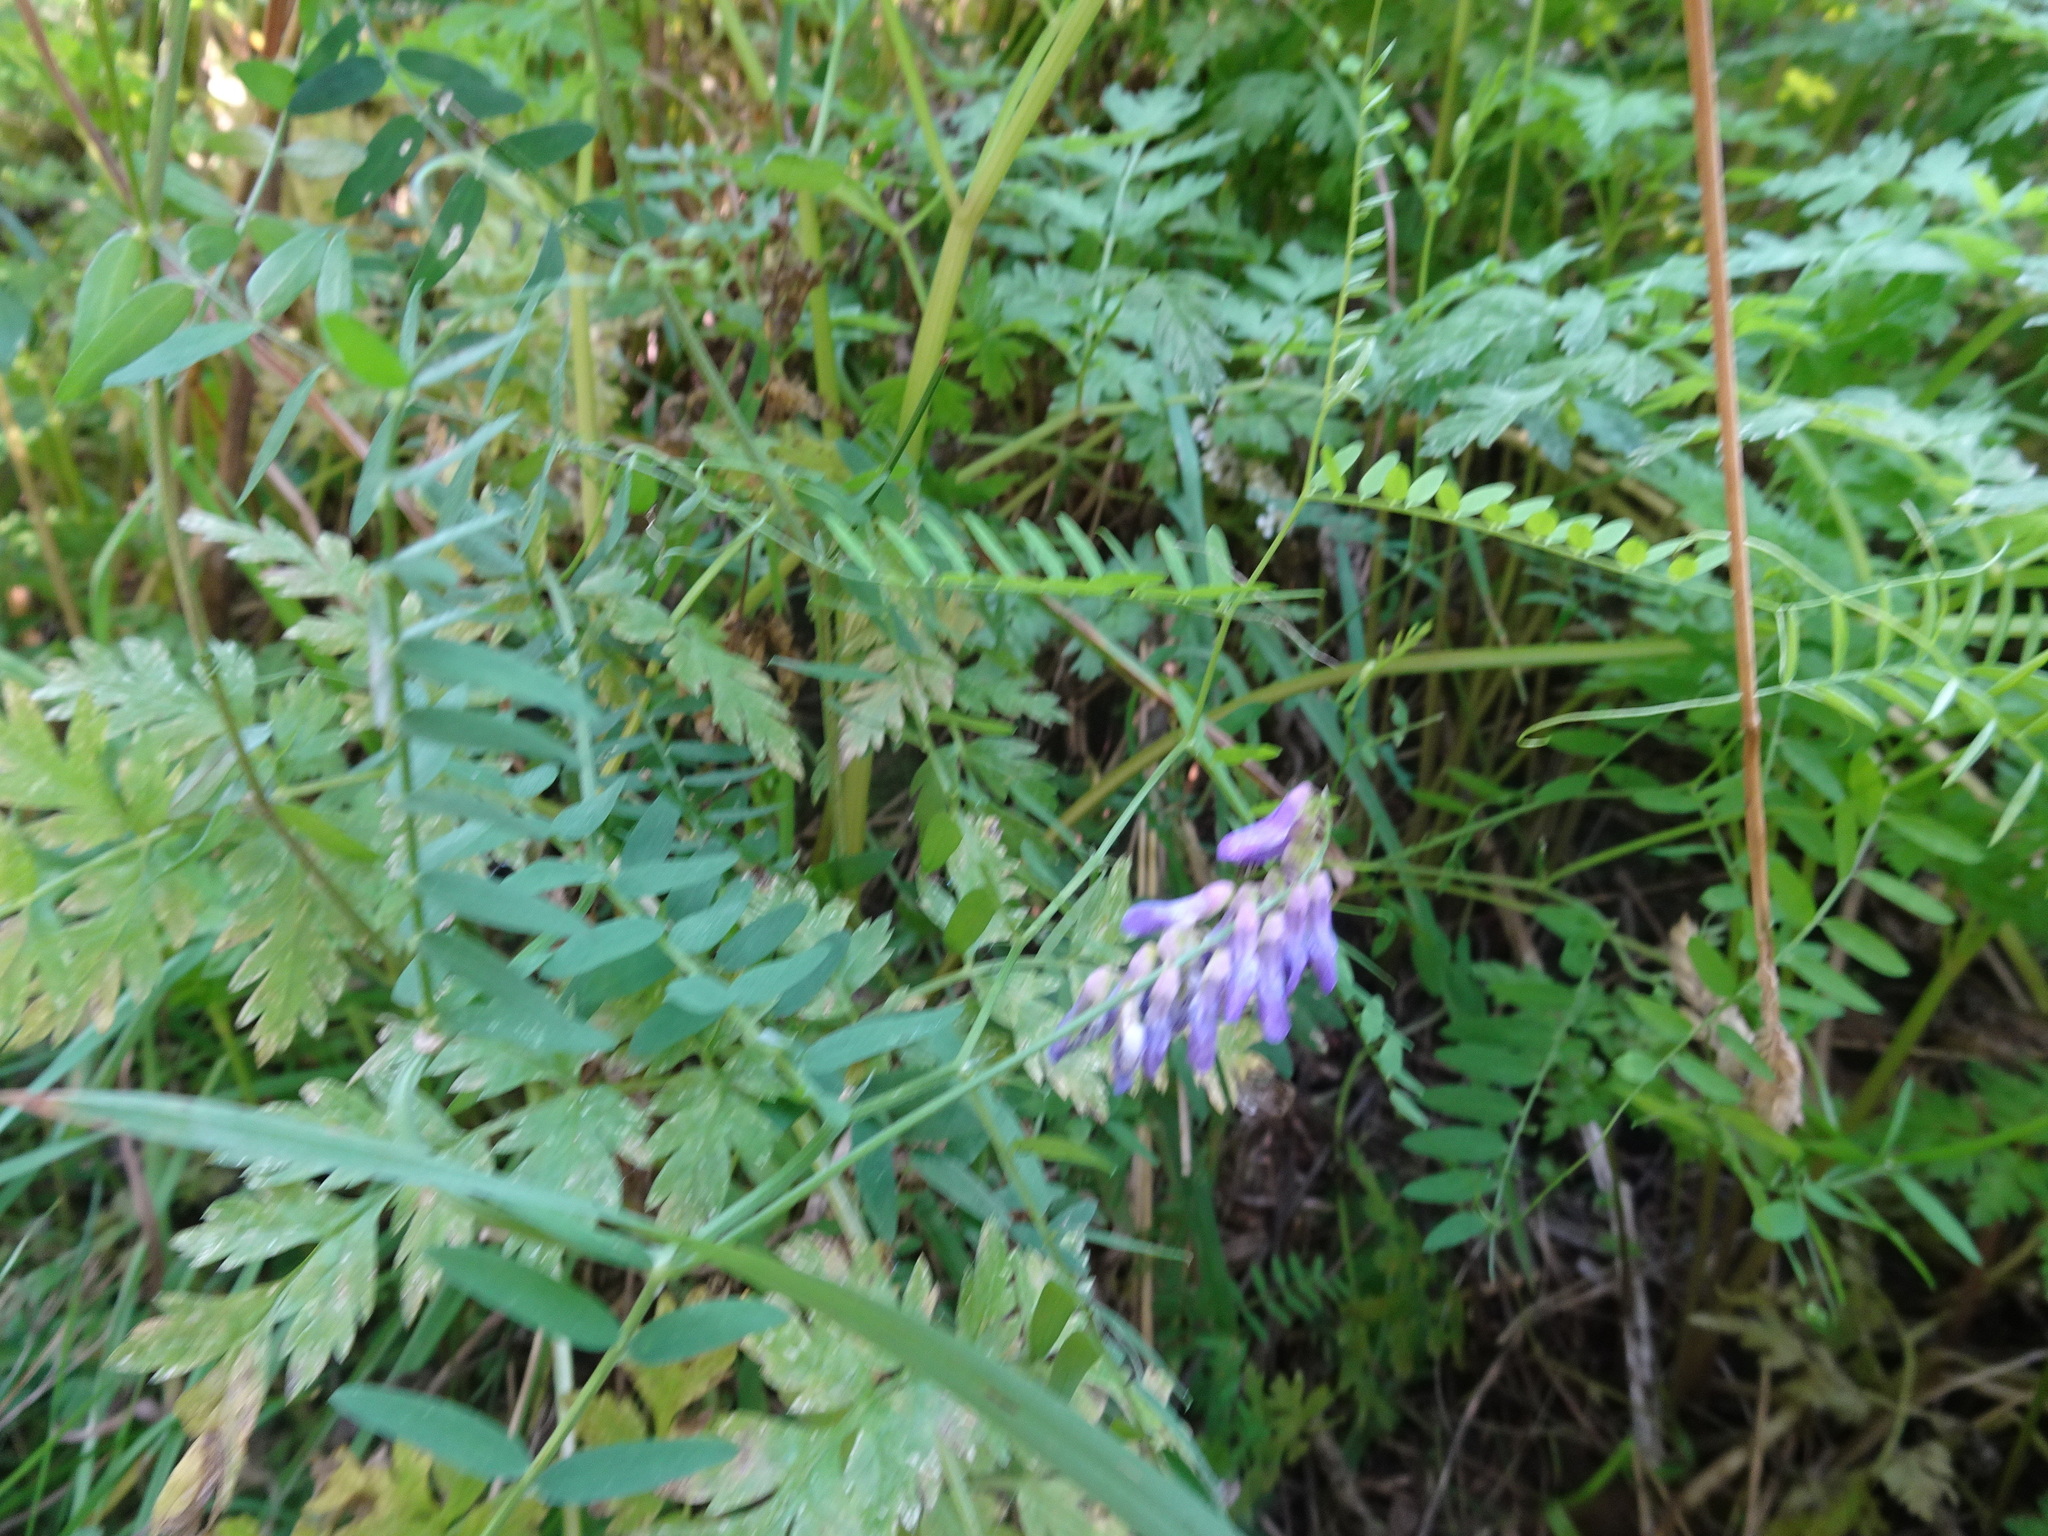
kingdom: Plantae
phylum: Tracheophyta
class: Magnoliopsida
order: Fabales
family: Fabaceae
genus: Vicia
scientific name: Vicia cracca
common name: Bird vetch
